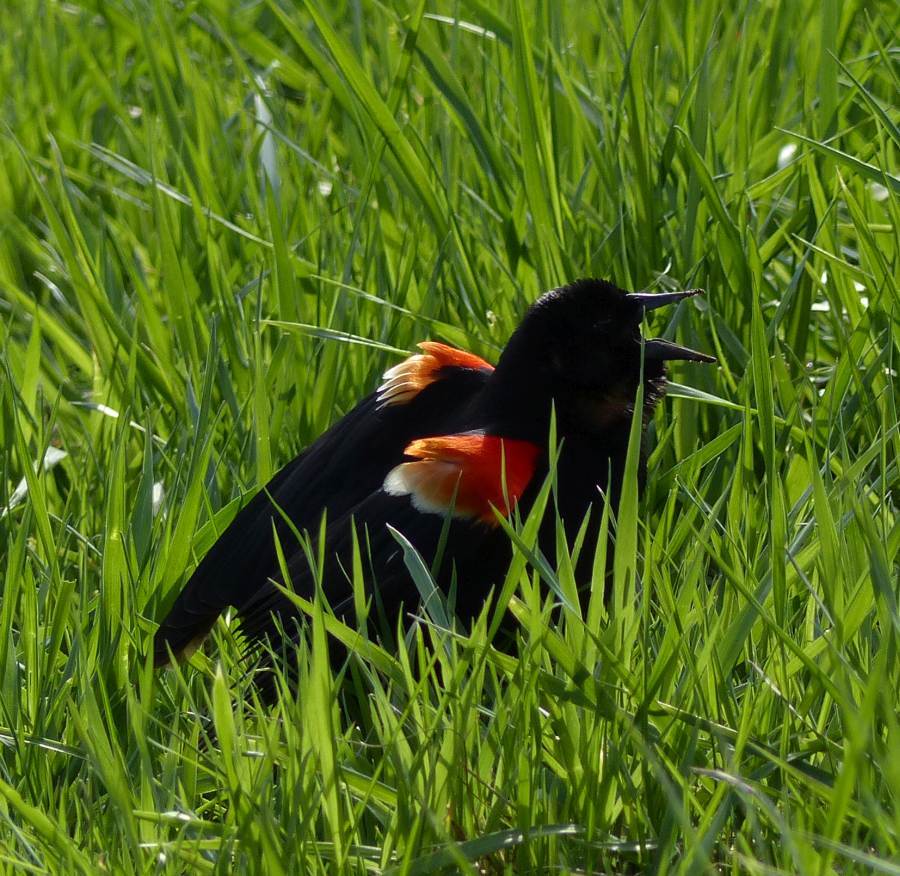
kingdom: Animalia
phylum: Chordata
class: Aves
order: Passeriformes
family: Icteridae
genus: Agelaius
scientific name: Agelaius phoeniceus
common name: Red-winged blackbird
